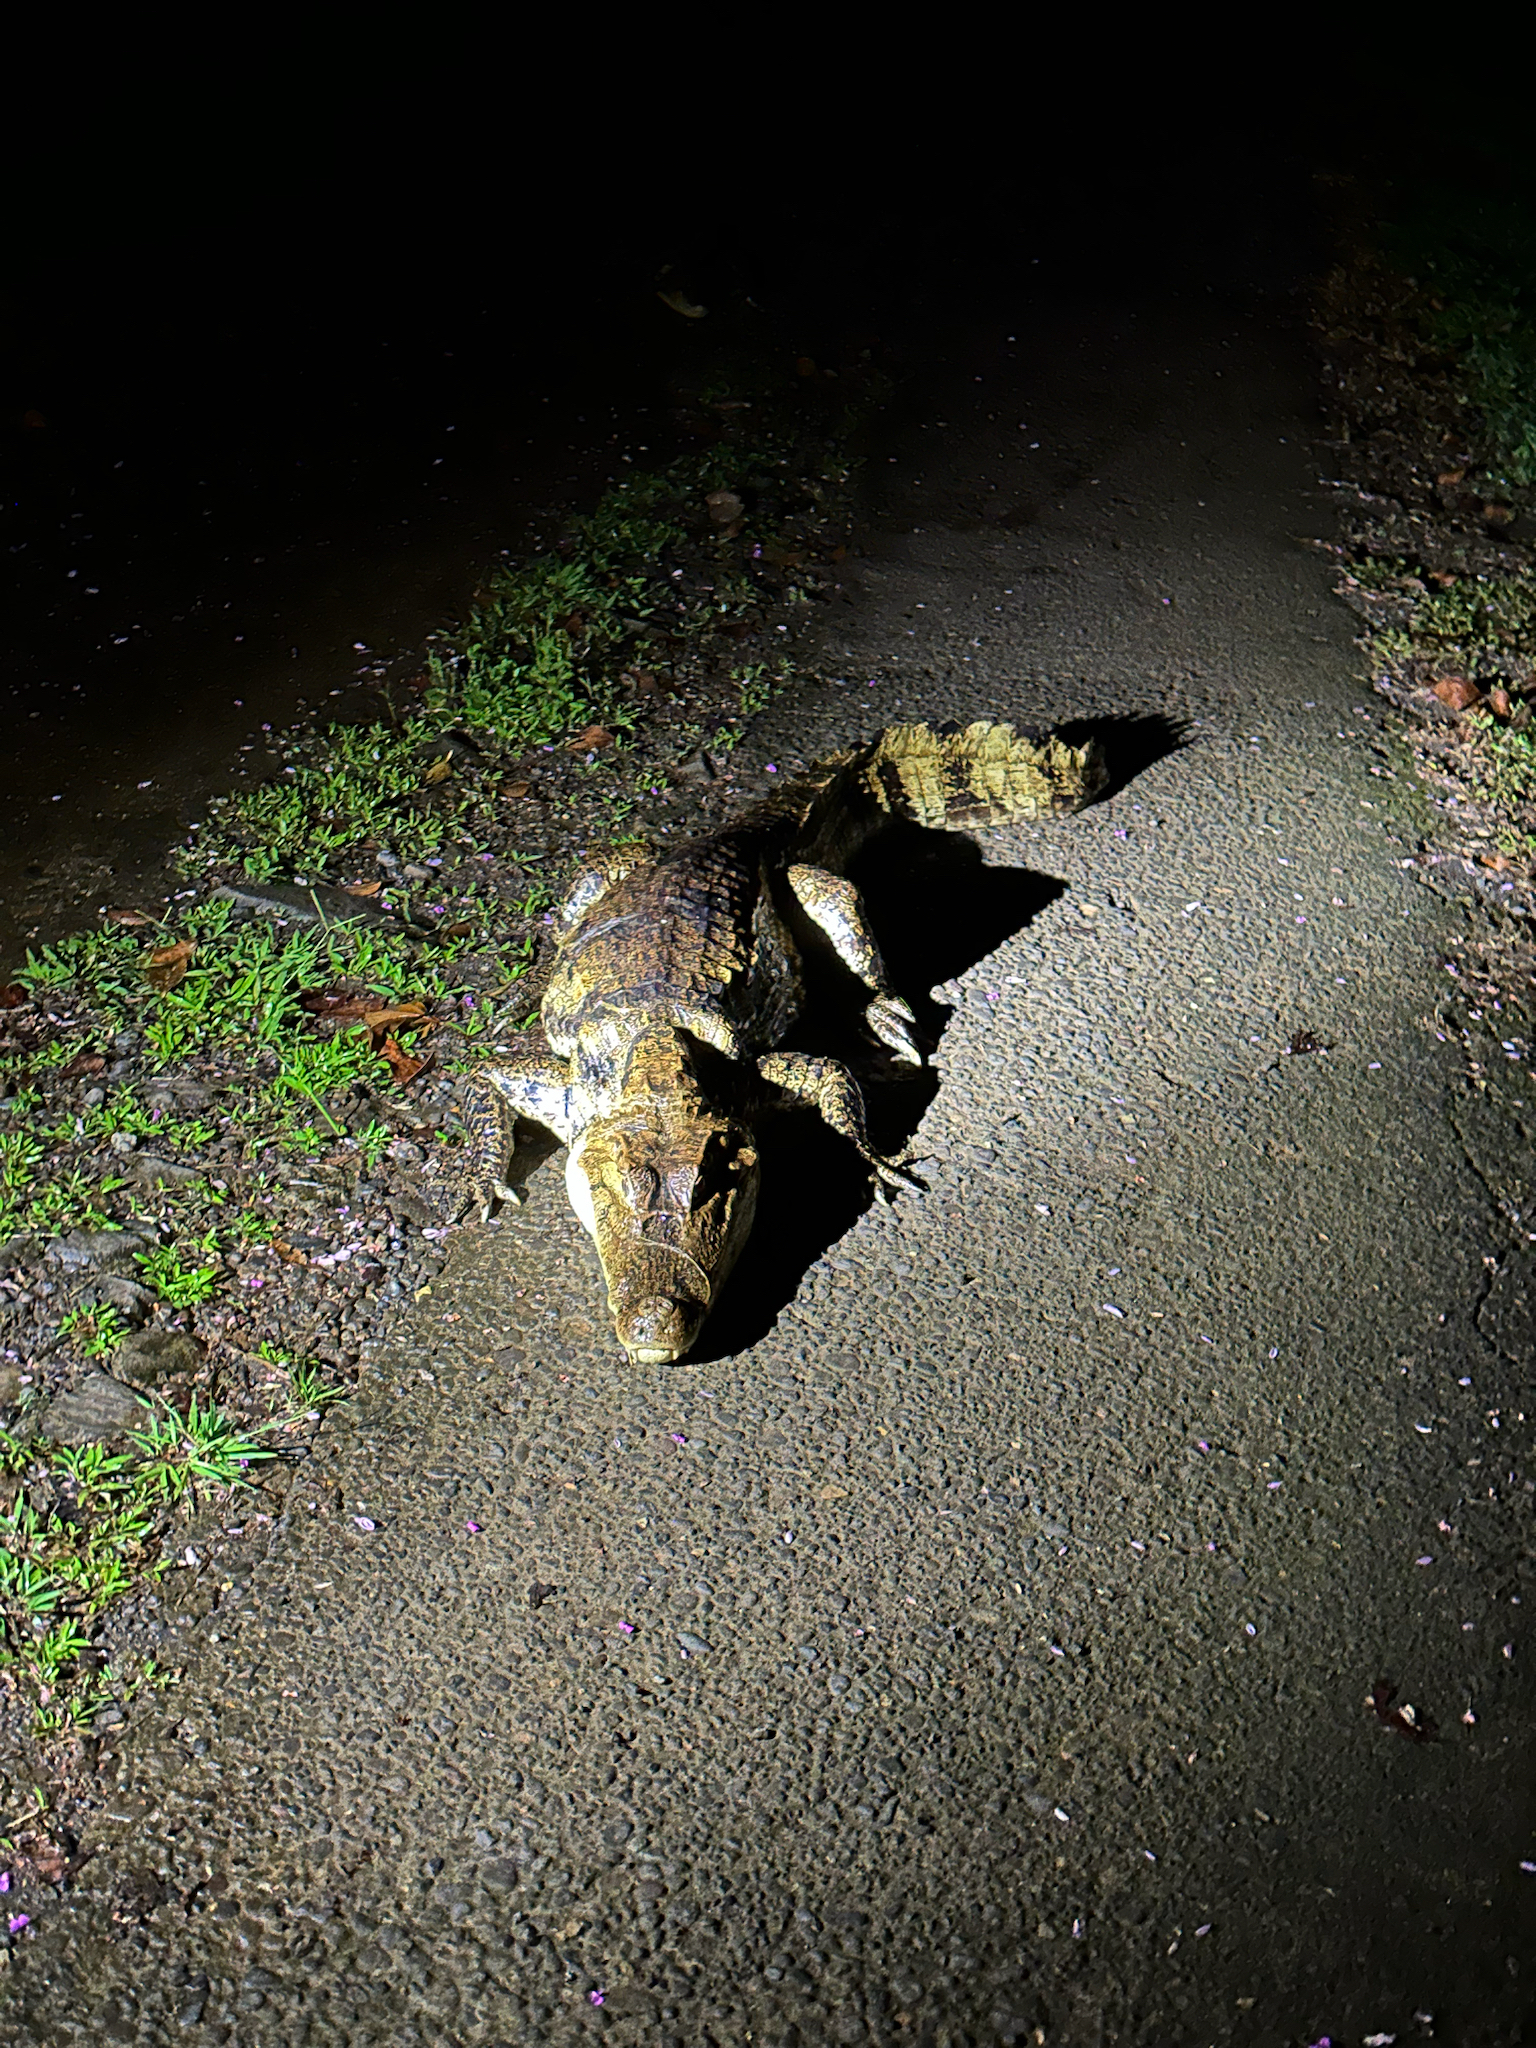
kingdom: Animalia
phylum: Chordata
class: Crocodylia
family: Alligatoridae
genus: Caiman
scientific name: Caiman crocodilus
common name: Common caiman
